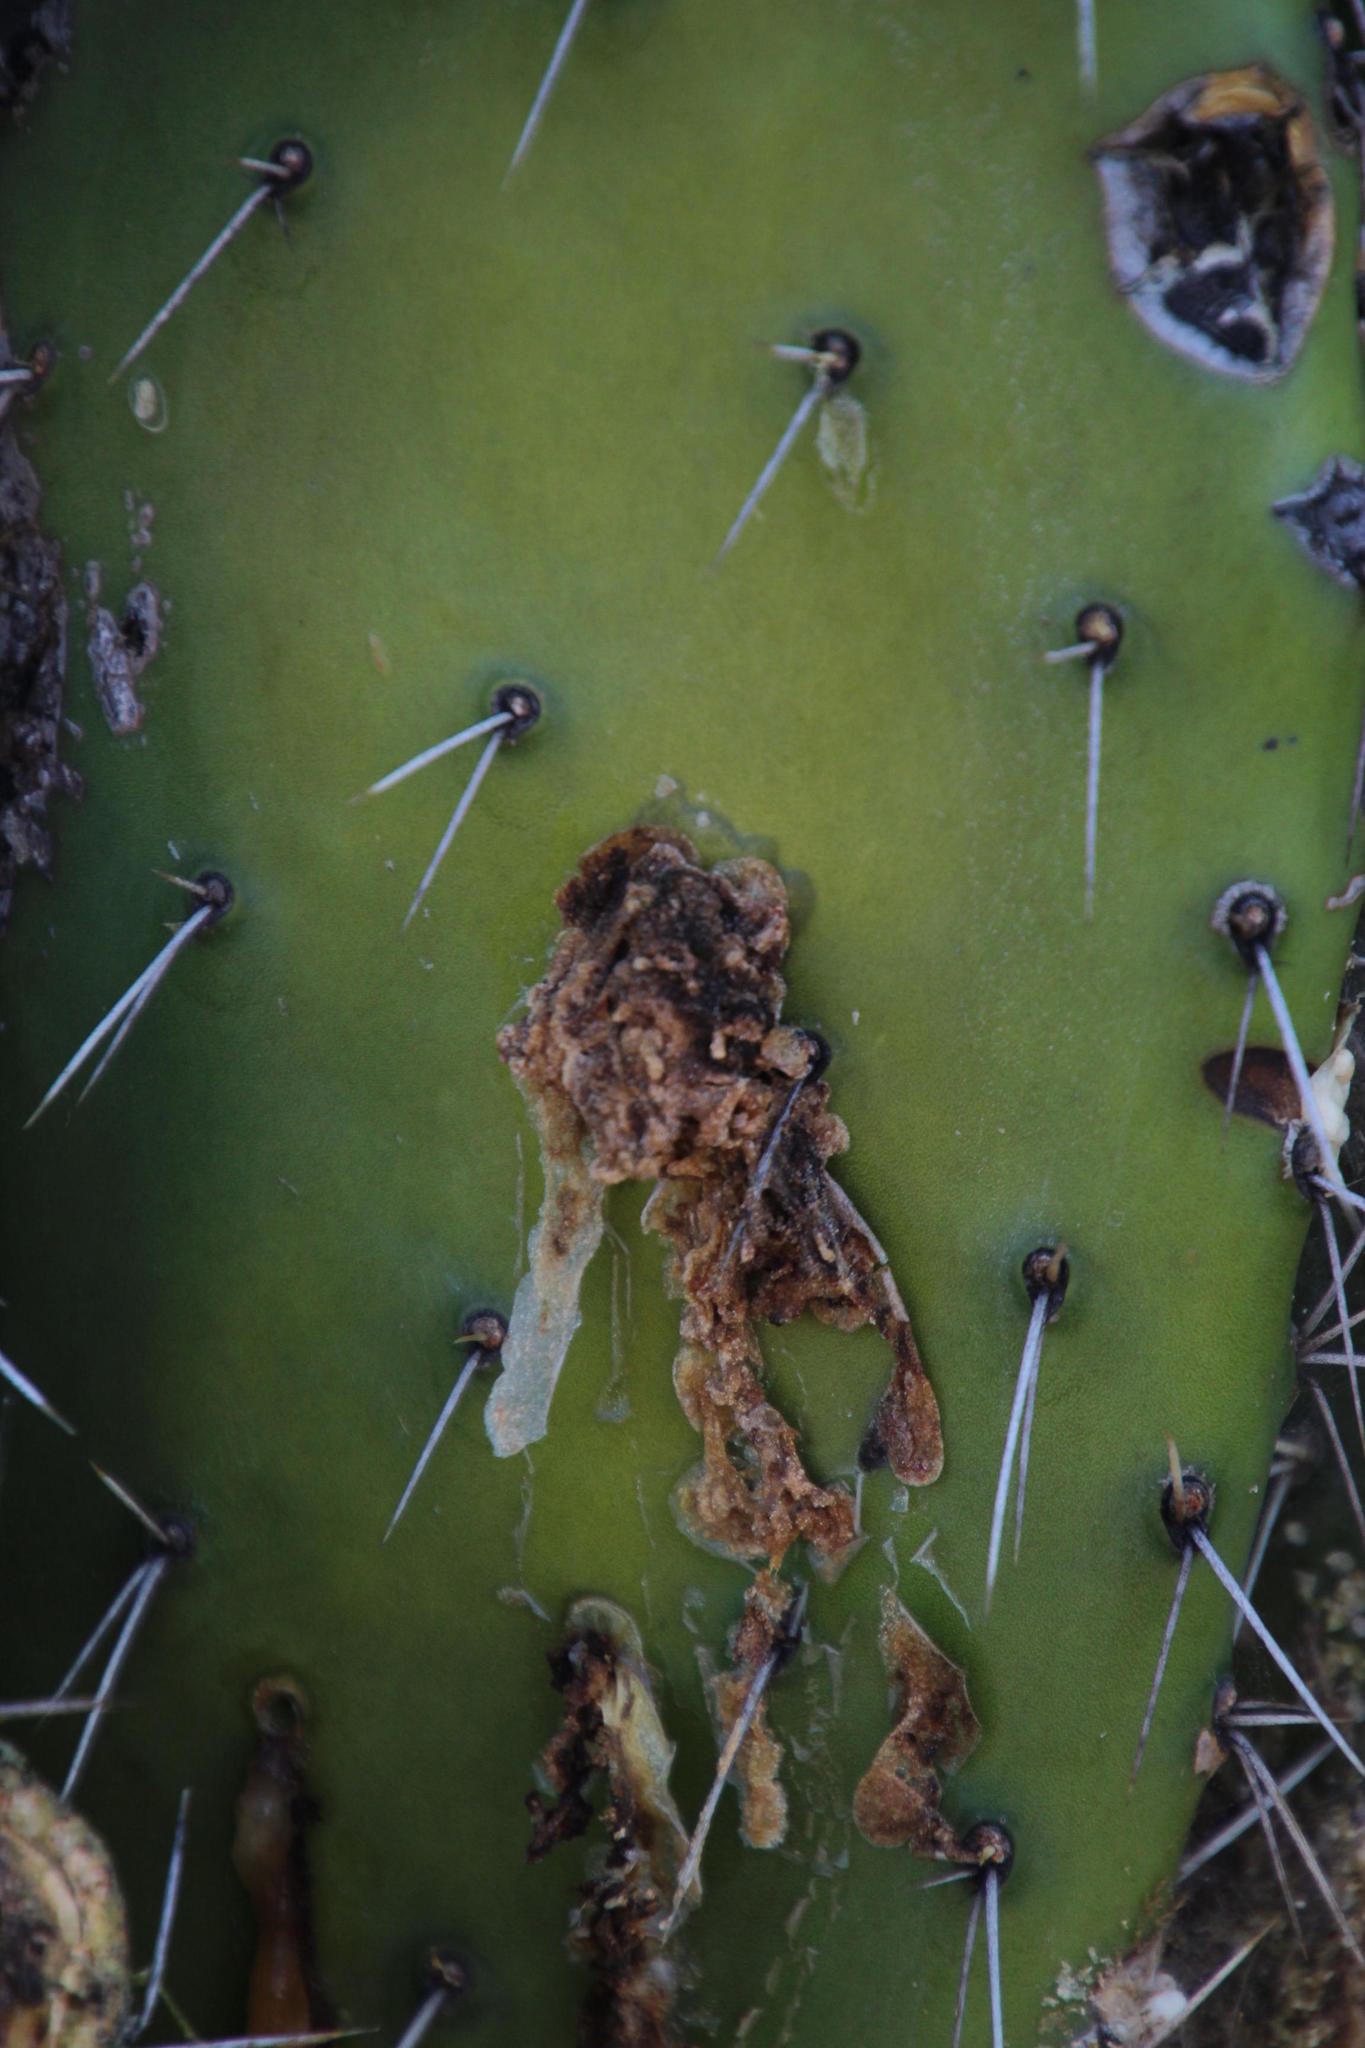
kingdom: Animalia
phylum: Arthropoda
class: Insecta
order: Lepidoptera
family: Pyralidae
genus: Cactoblastis
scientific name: Cactoblastis cactorum
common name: Cactus moth
